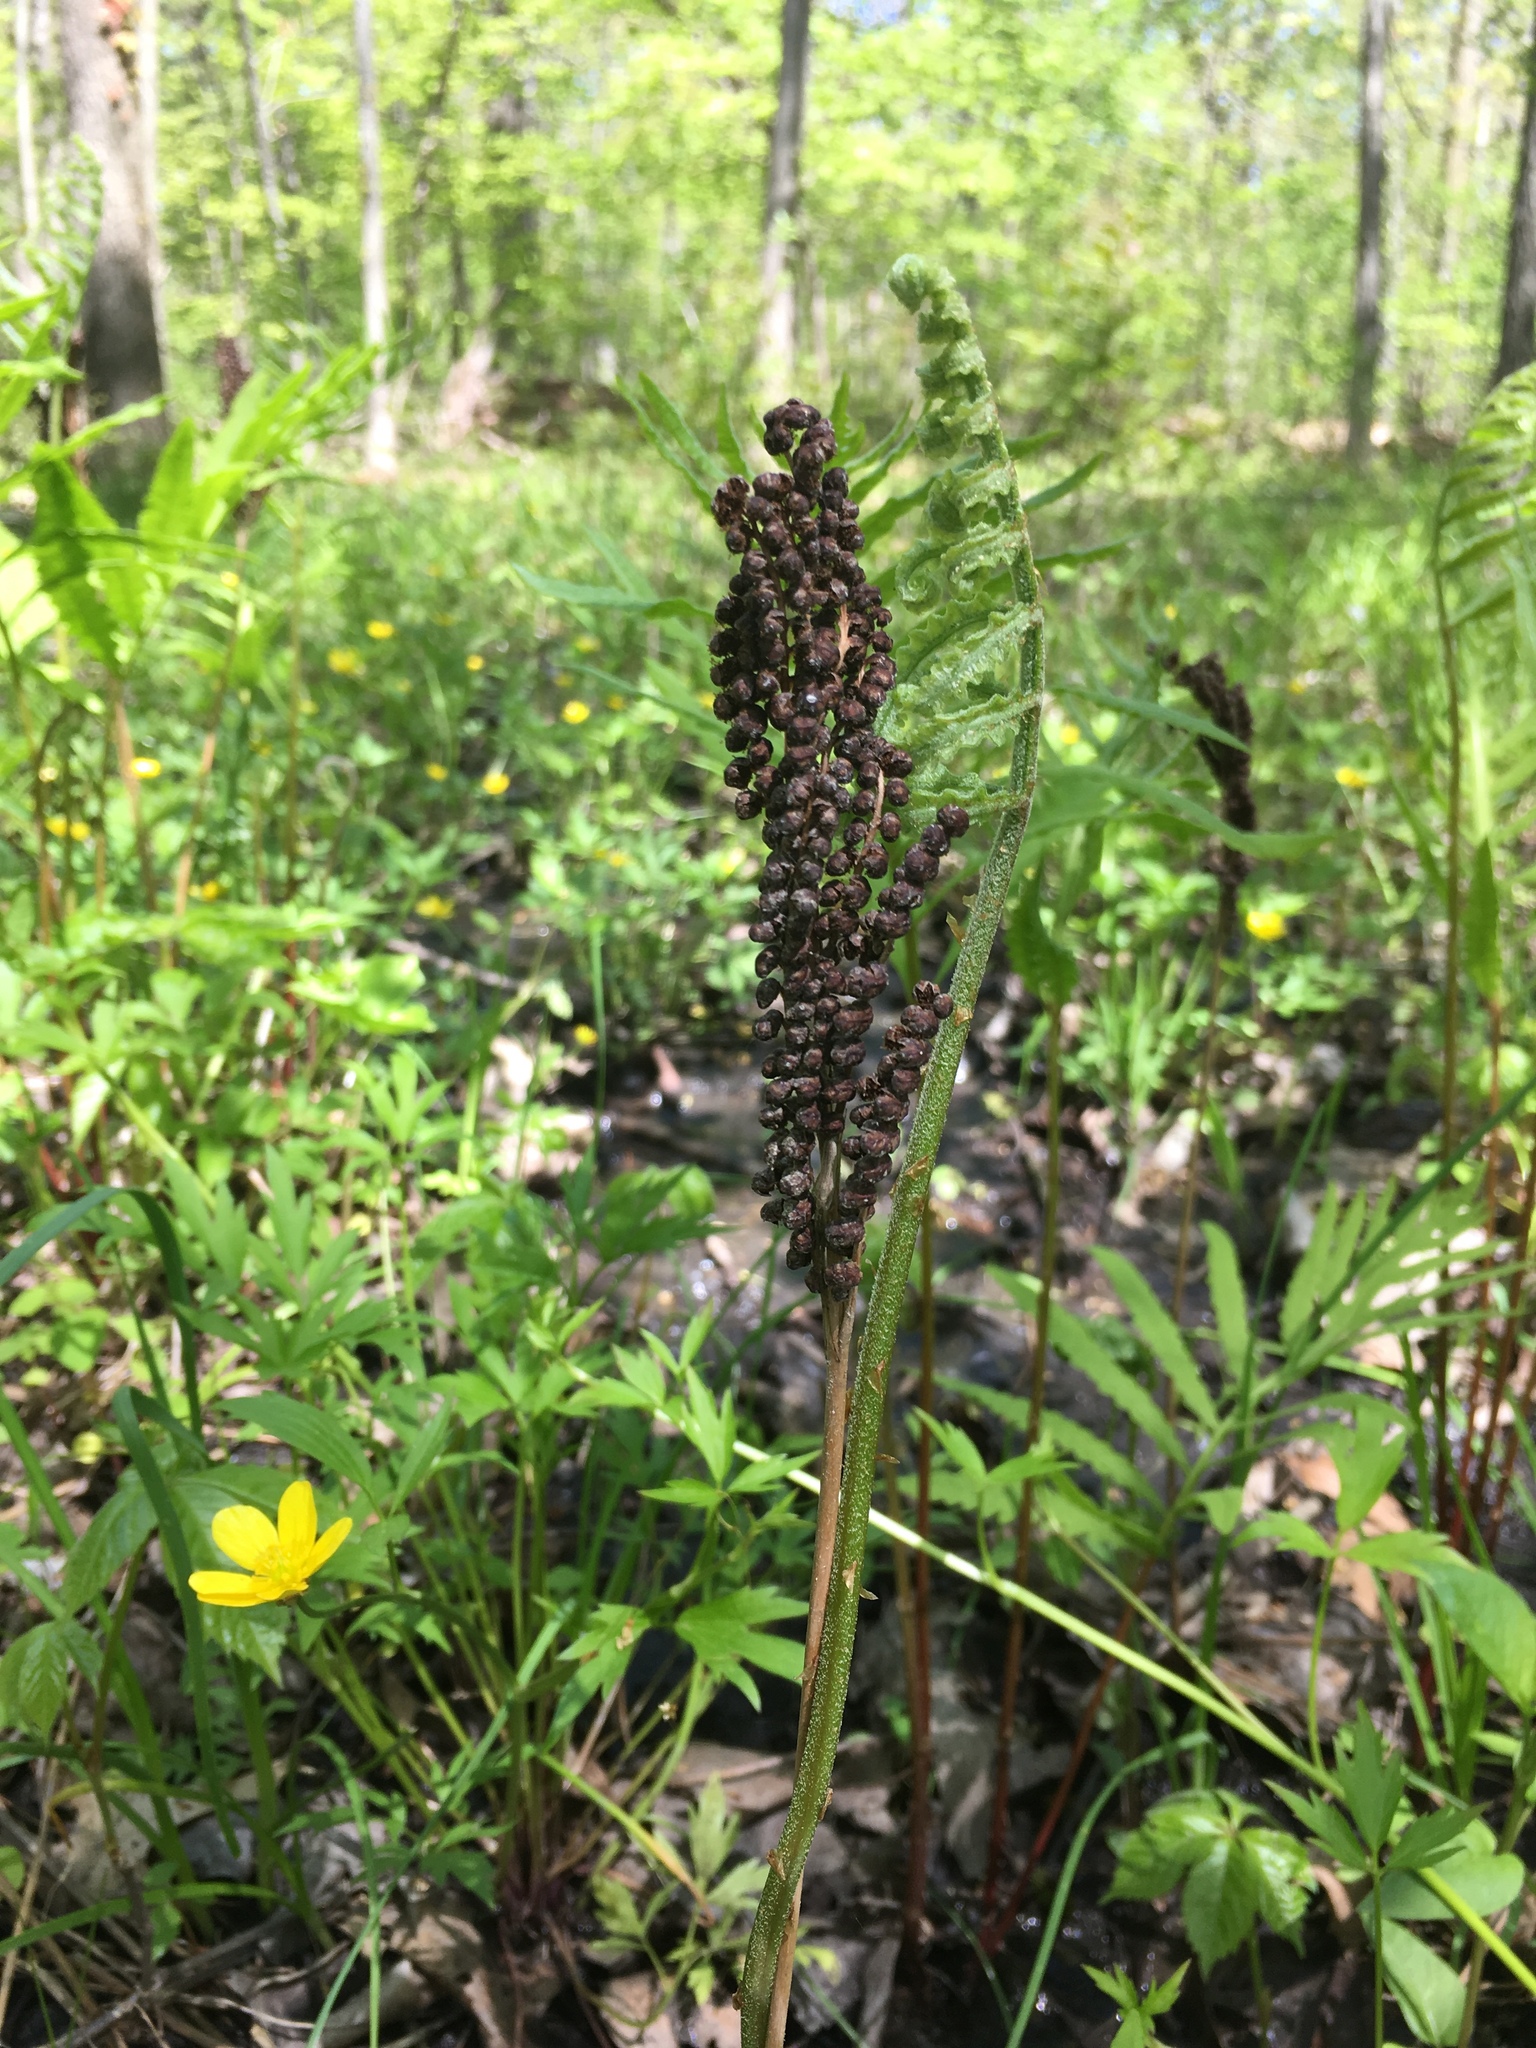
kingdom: Plantae
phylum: Tracheophyta
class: Polypodiopsida
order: Polypodiales
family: Onocleaceae
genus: Onoclea
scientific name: Onoclea sensibilis
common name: Sensitive fern
